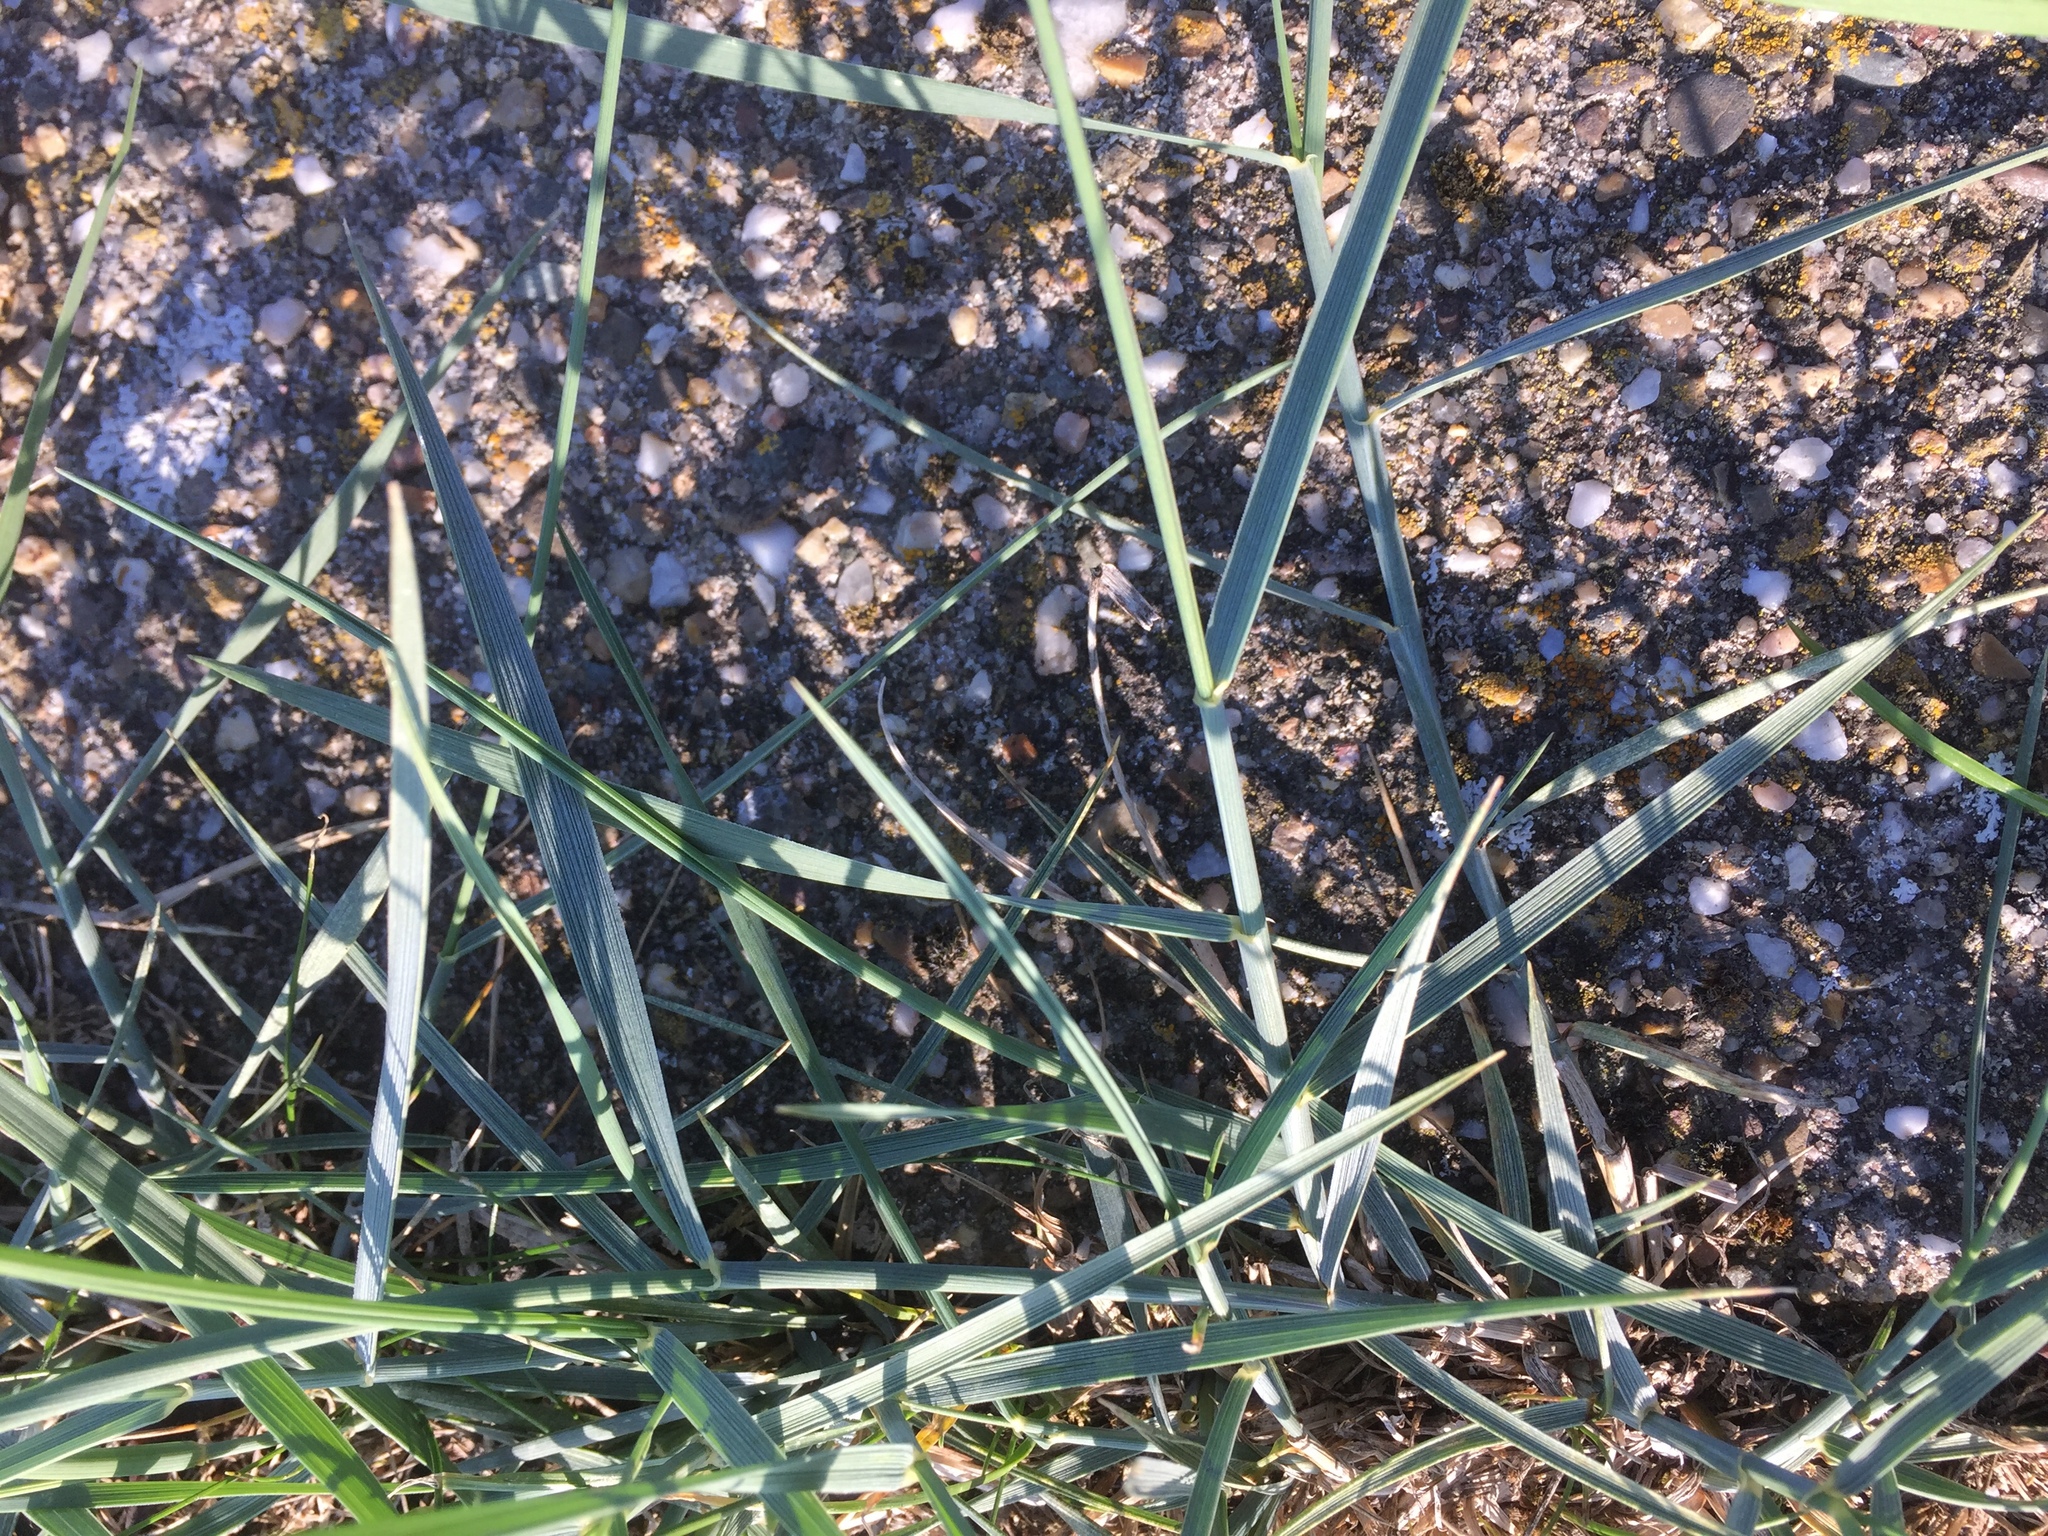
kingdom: Plantae
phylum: Tracheophyta
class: Liliopsida
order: Poales
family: Poaceae
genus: Elymus
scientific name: Elymus athericus
